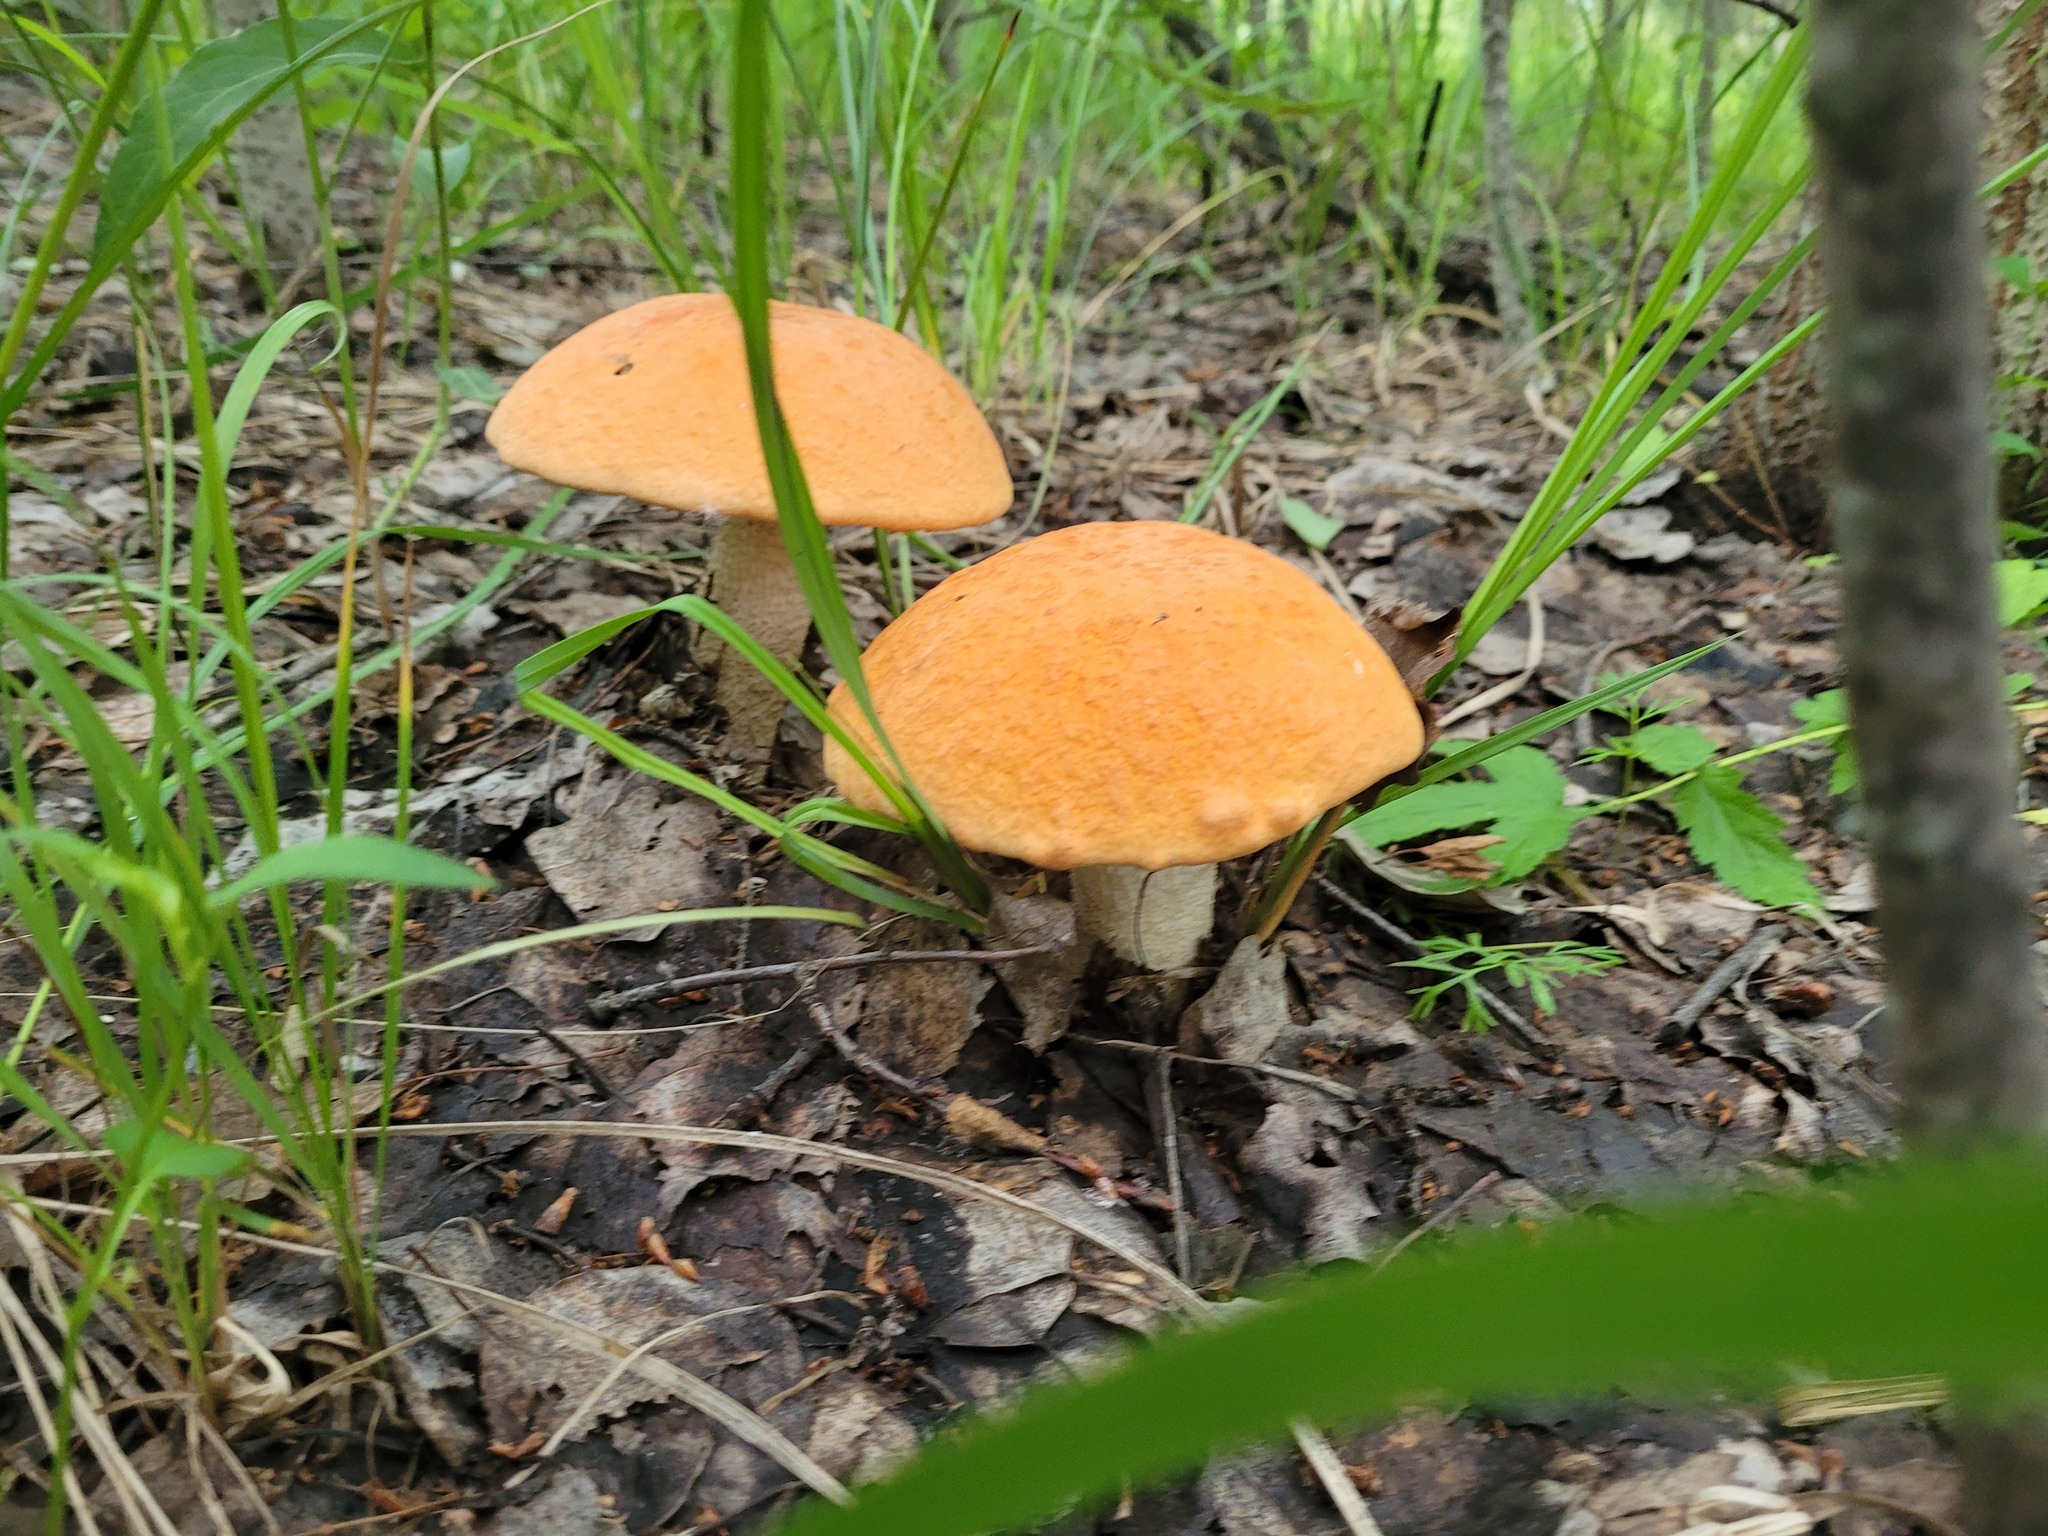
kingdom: Fungi
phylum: Basidiomycota
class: Agaricomycetes
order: Boletales
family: Boletaceae
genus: Leccinum
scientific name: Leccinum albostipitatum
